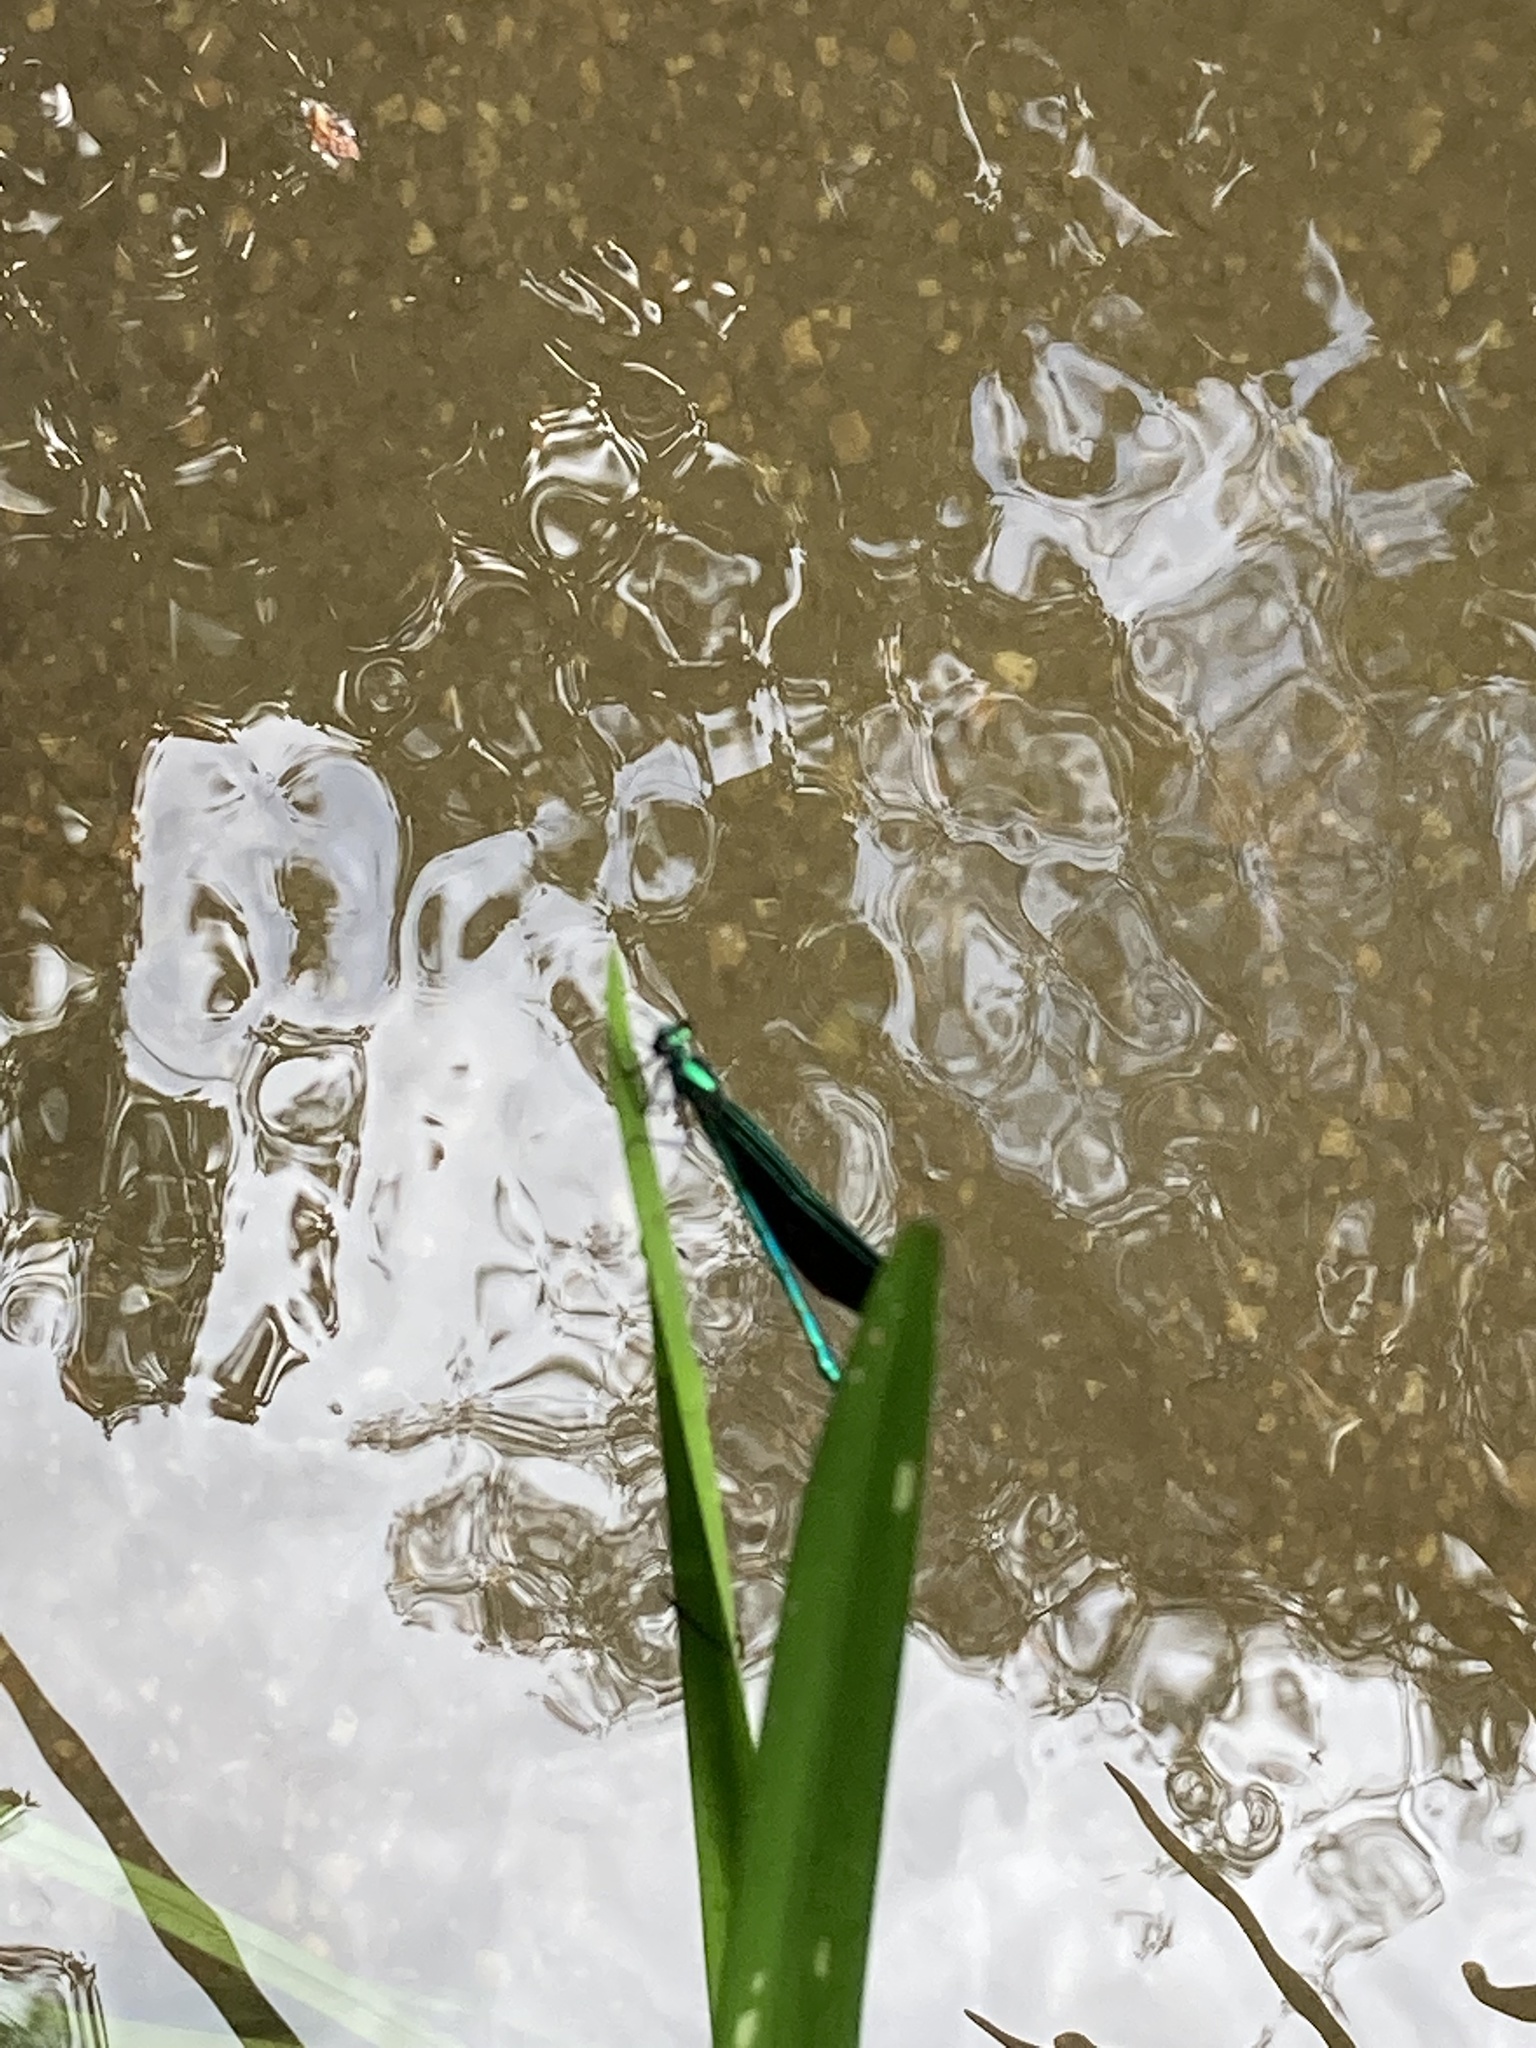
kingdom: Animalia
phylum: Arthropoda
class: Insecta
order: Odonata
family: Calopterygidae
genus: Calopteryx
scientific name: Calopteryx maculata
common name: Ebony jewelwing
